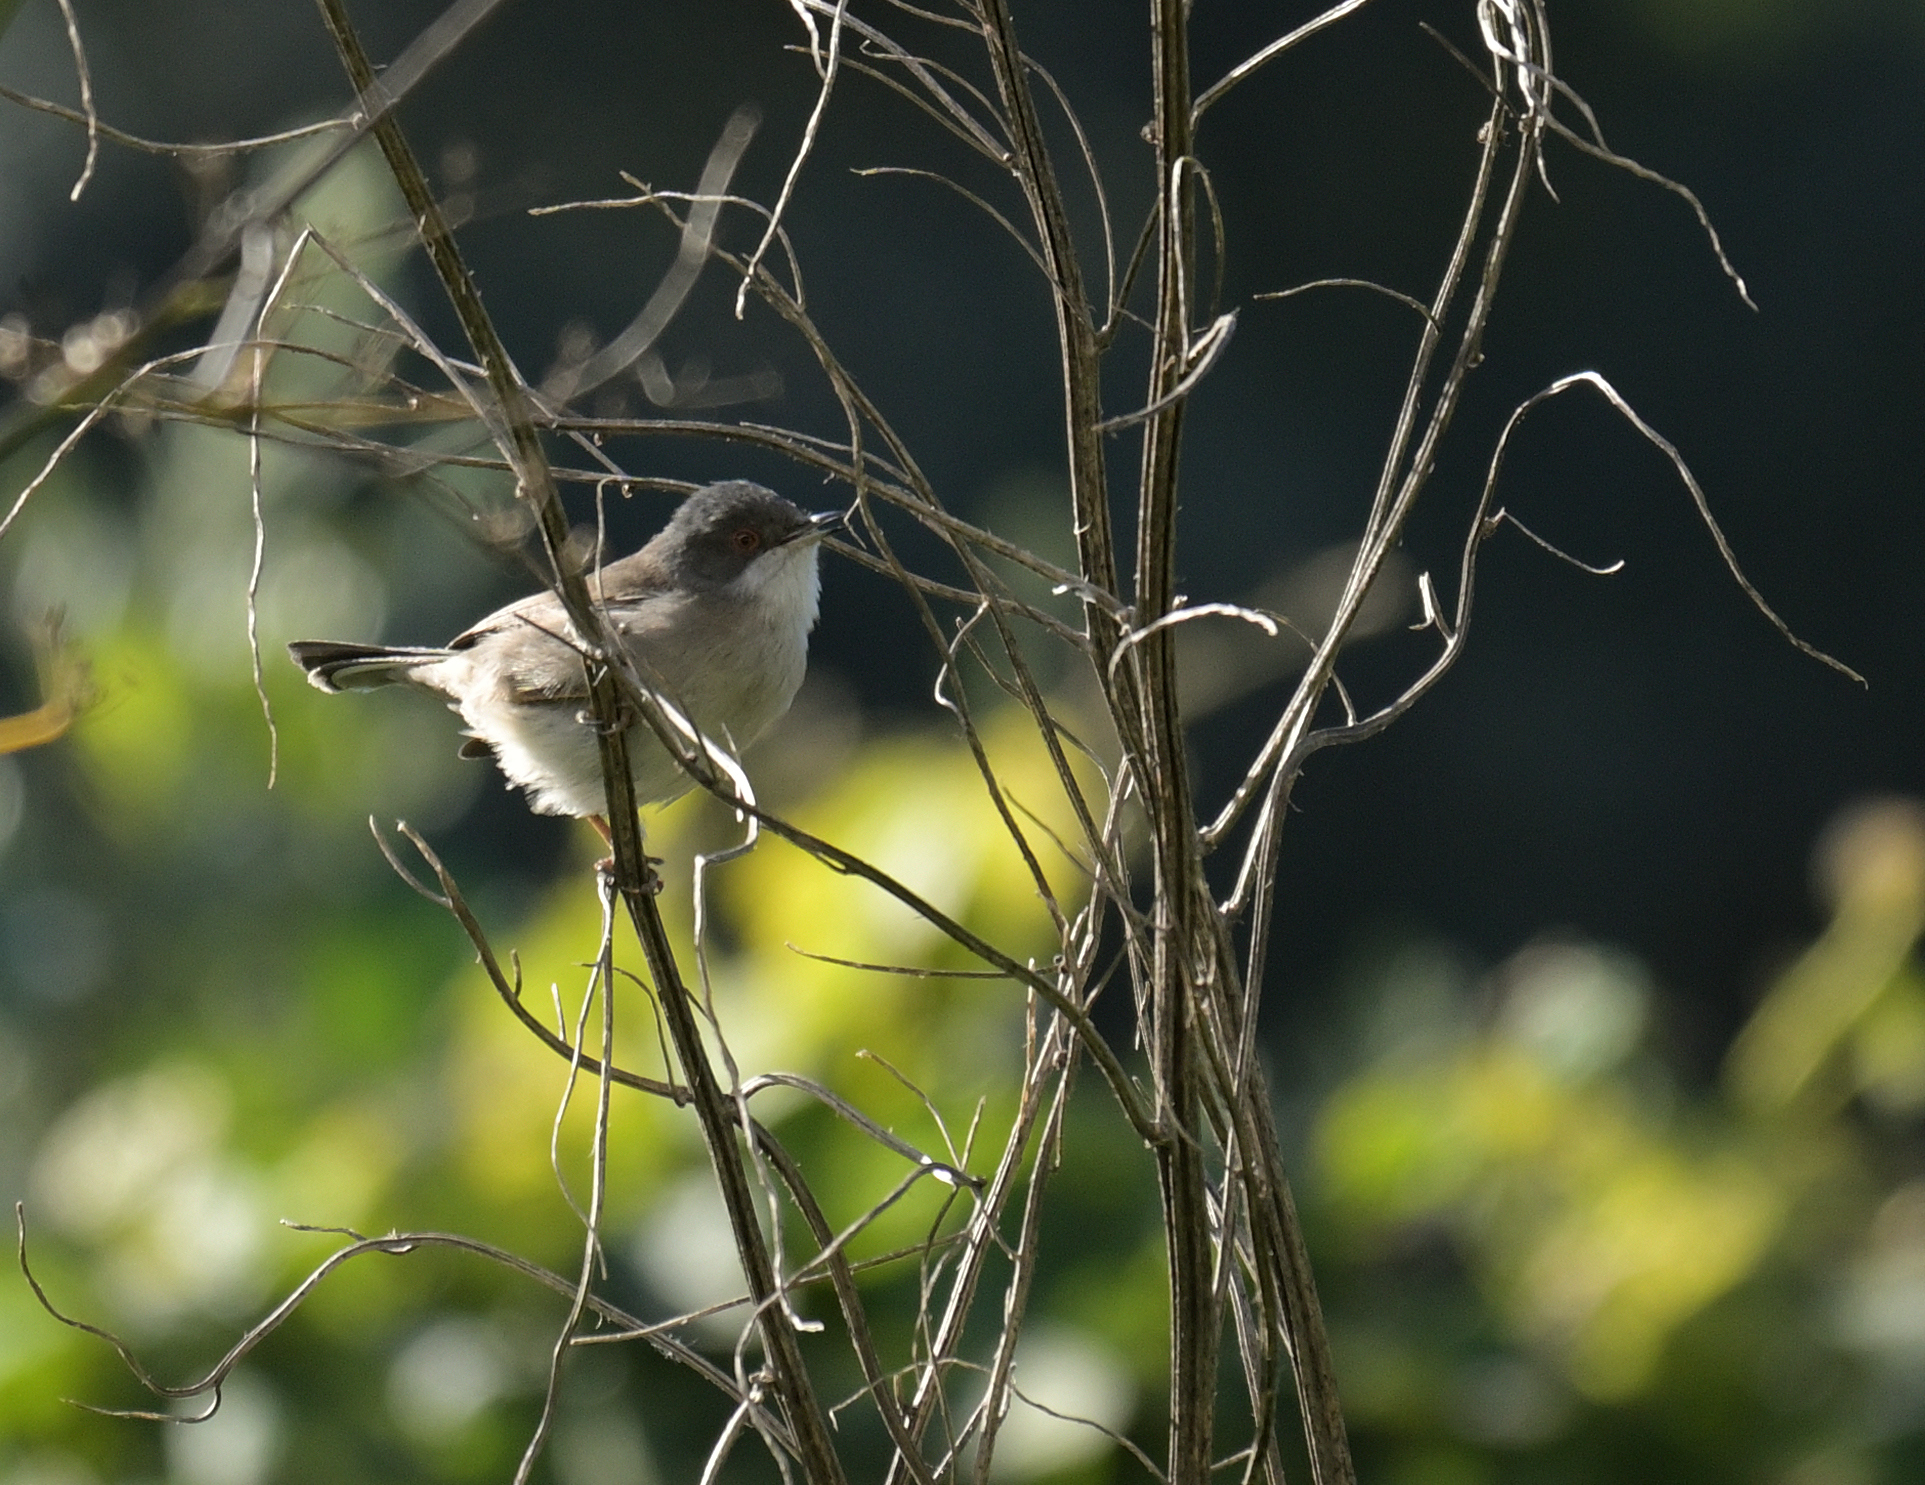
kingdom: Animalia
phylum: Chordata
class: Aves
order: Passeriformes
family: Sylviidae
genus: Curruca
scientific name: Curruca melanocephala
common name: Sardinian warbler
